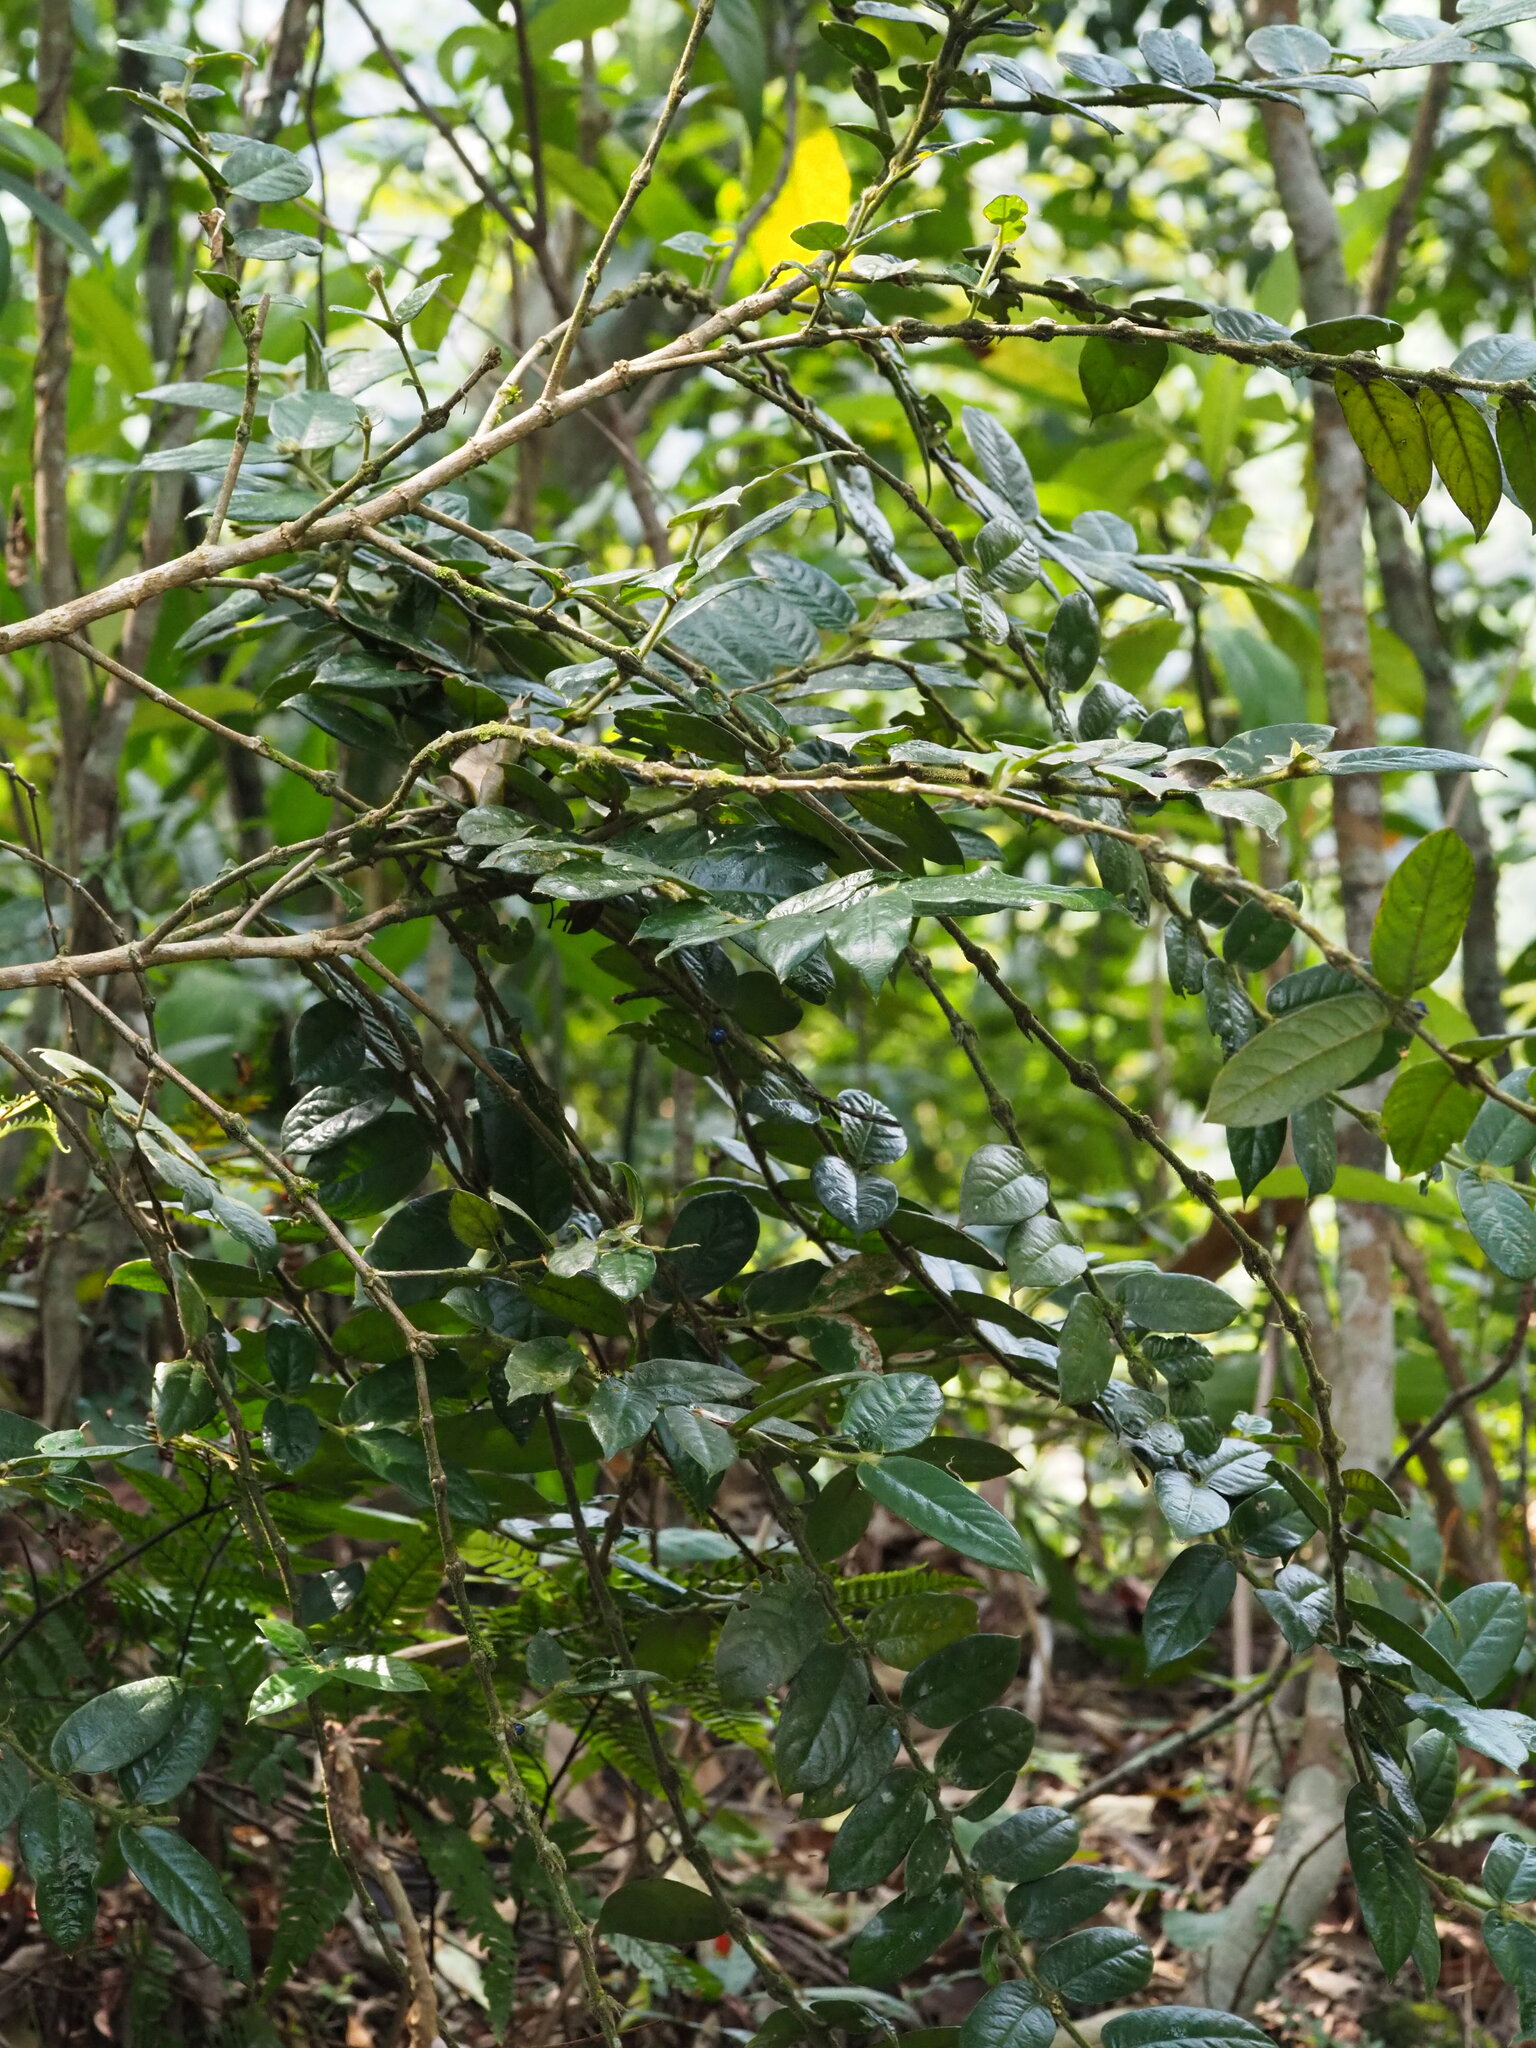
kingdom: Plantae
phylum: Tracheophyta
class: Magnoliopsida
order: Gentianales
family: Rubiaceae
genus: Lasianthus
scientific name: Lasianthus attenuatus
